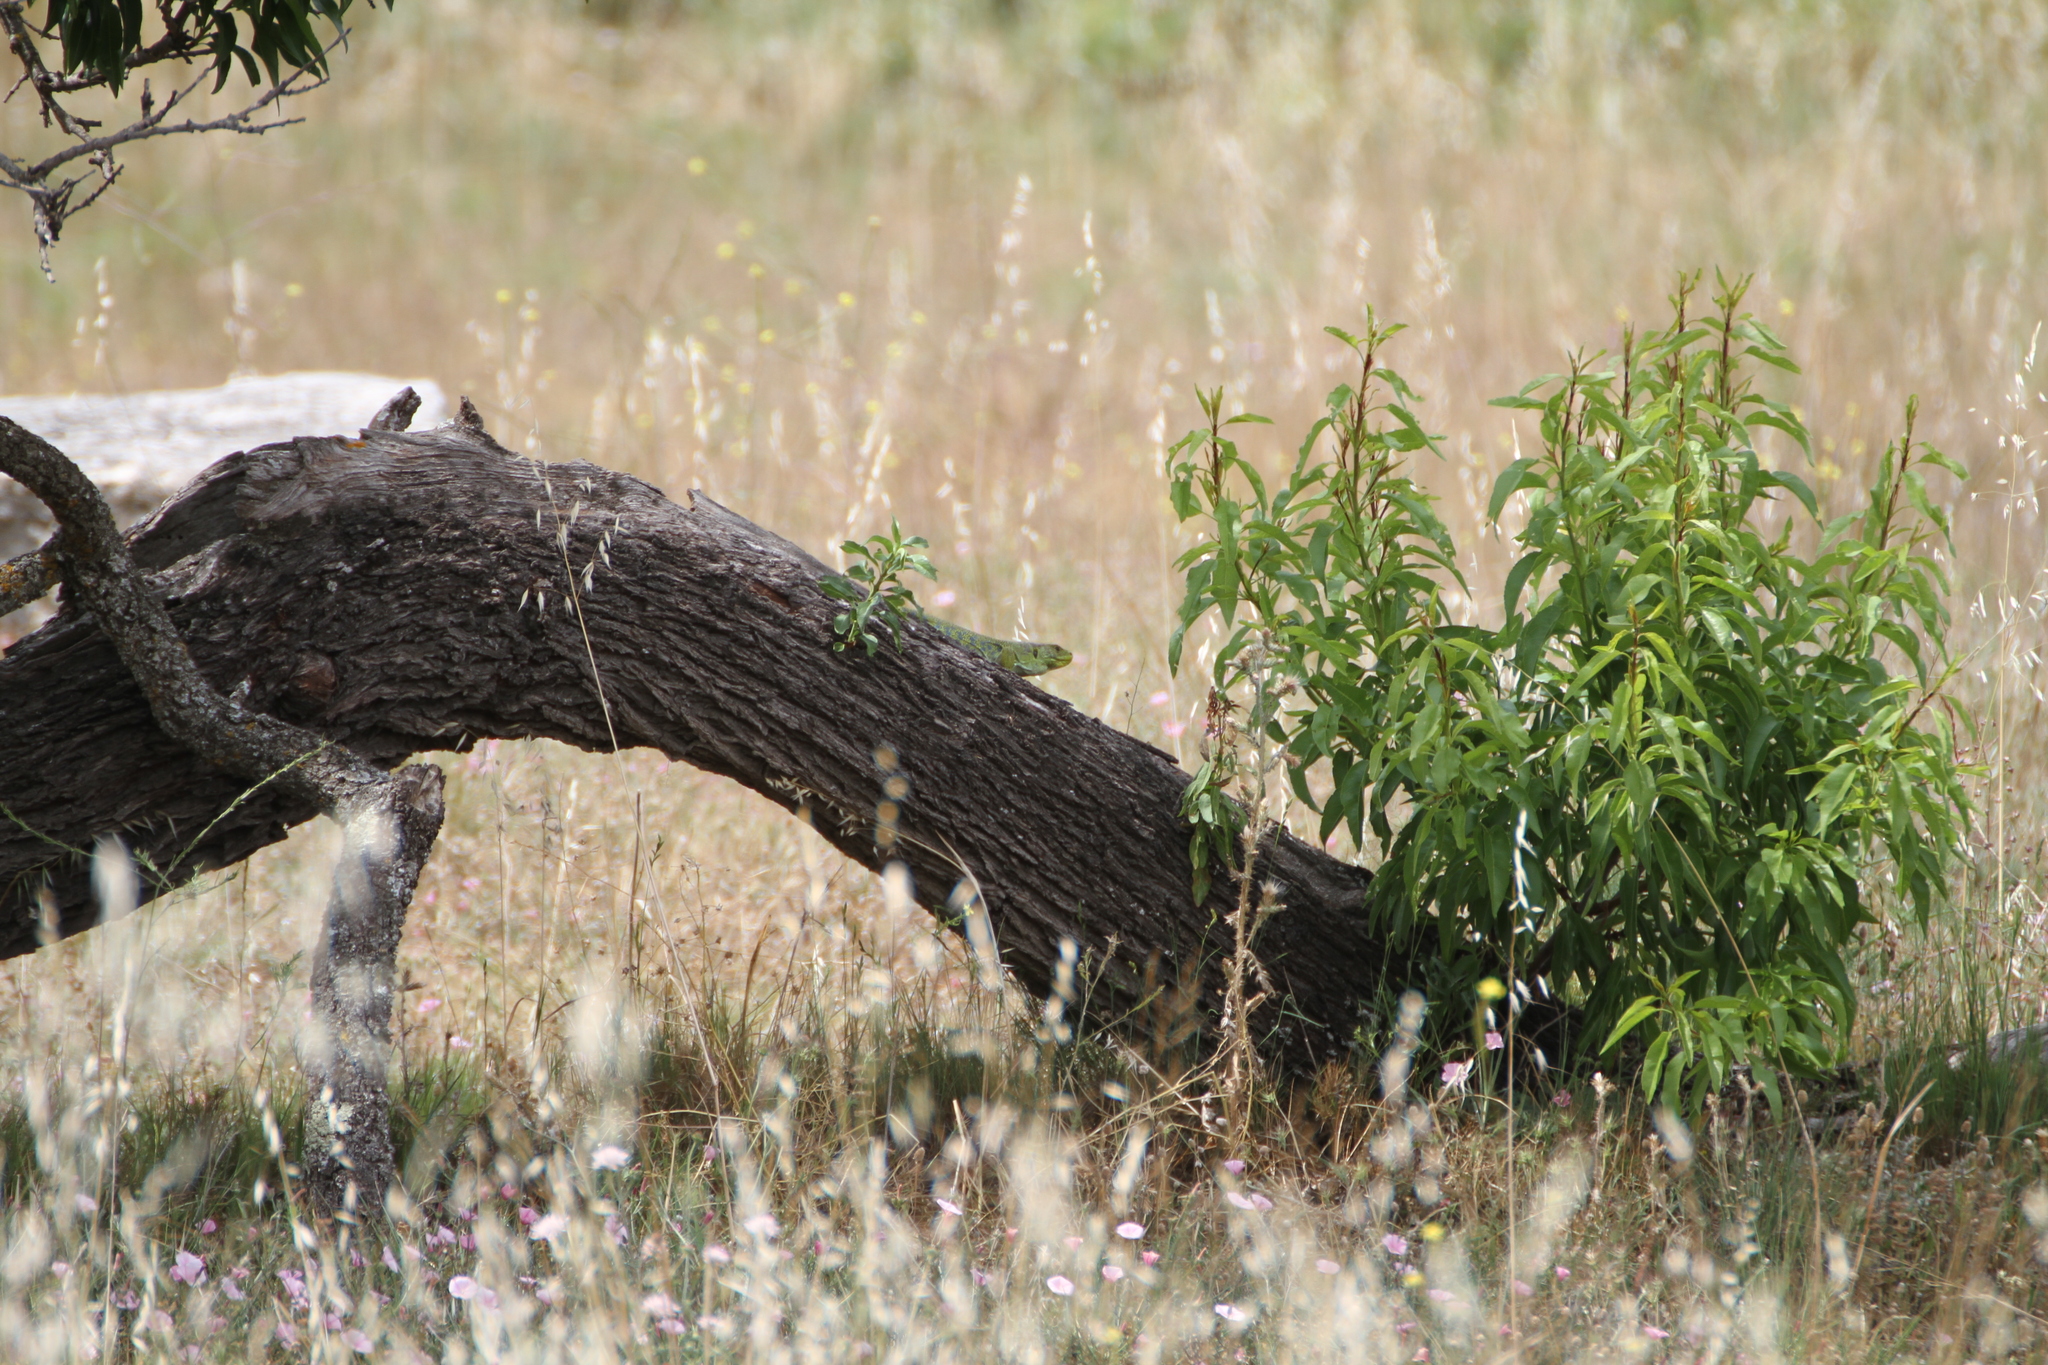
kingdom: Animalia
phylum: Chordata
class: Squamata
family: Lacertidae
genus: Timon
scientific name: Timon lepidus
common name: Ocellated lizard
